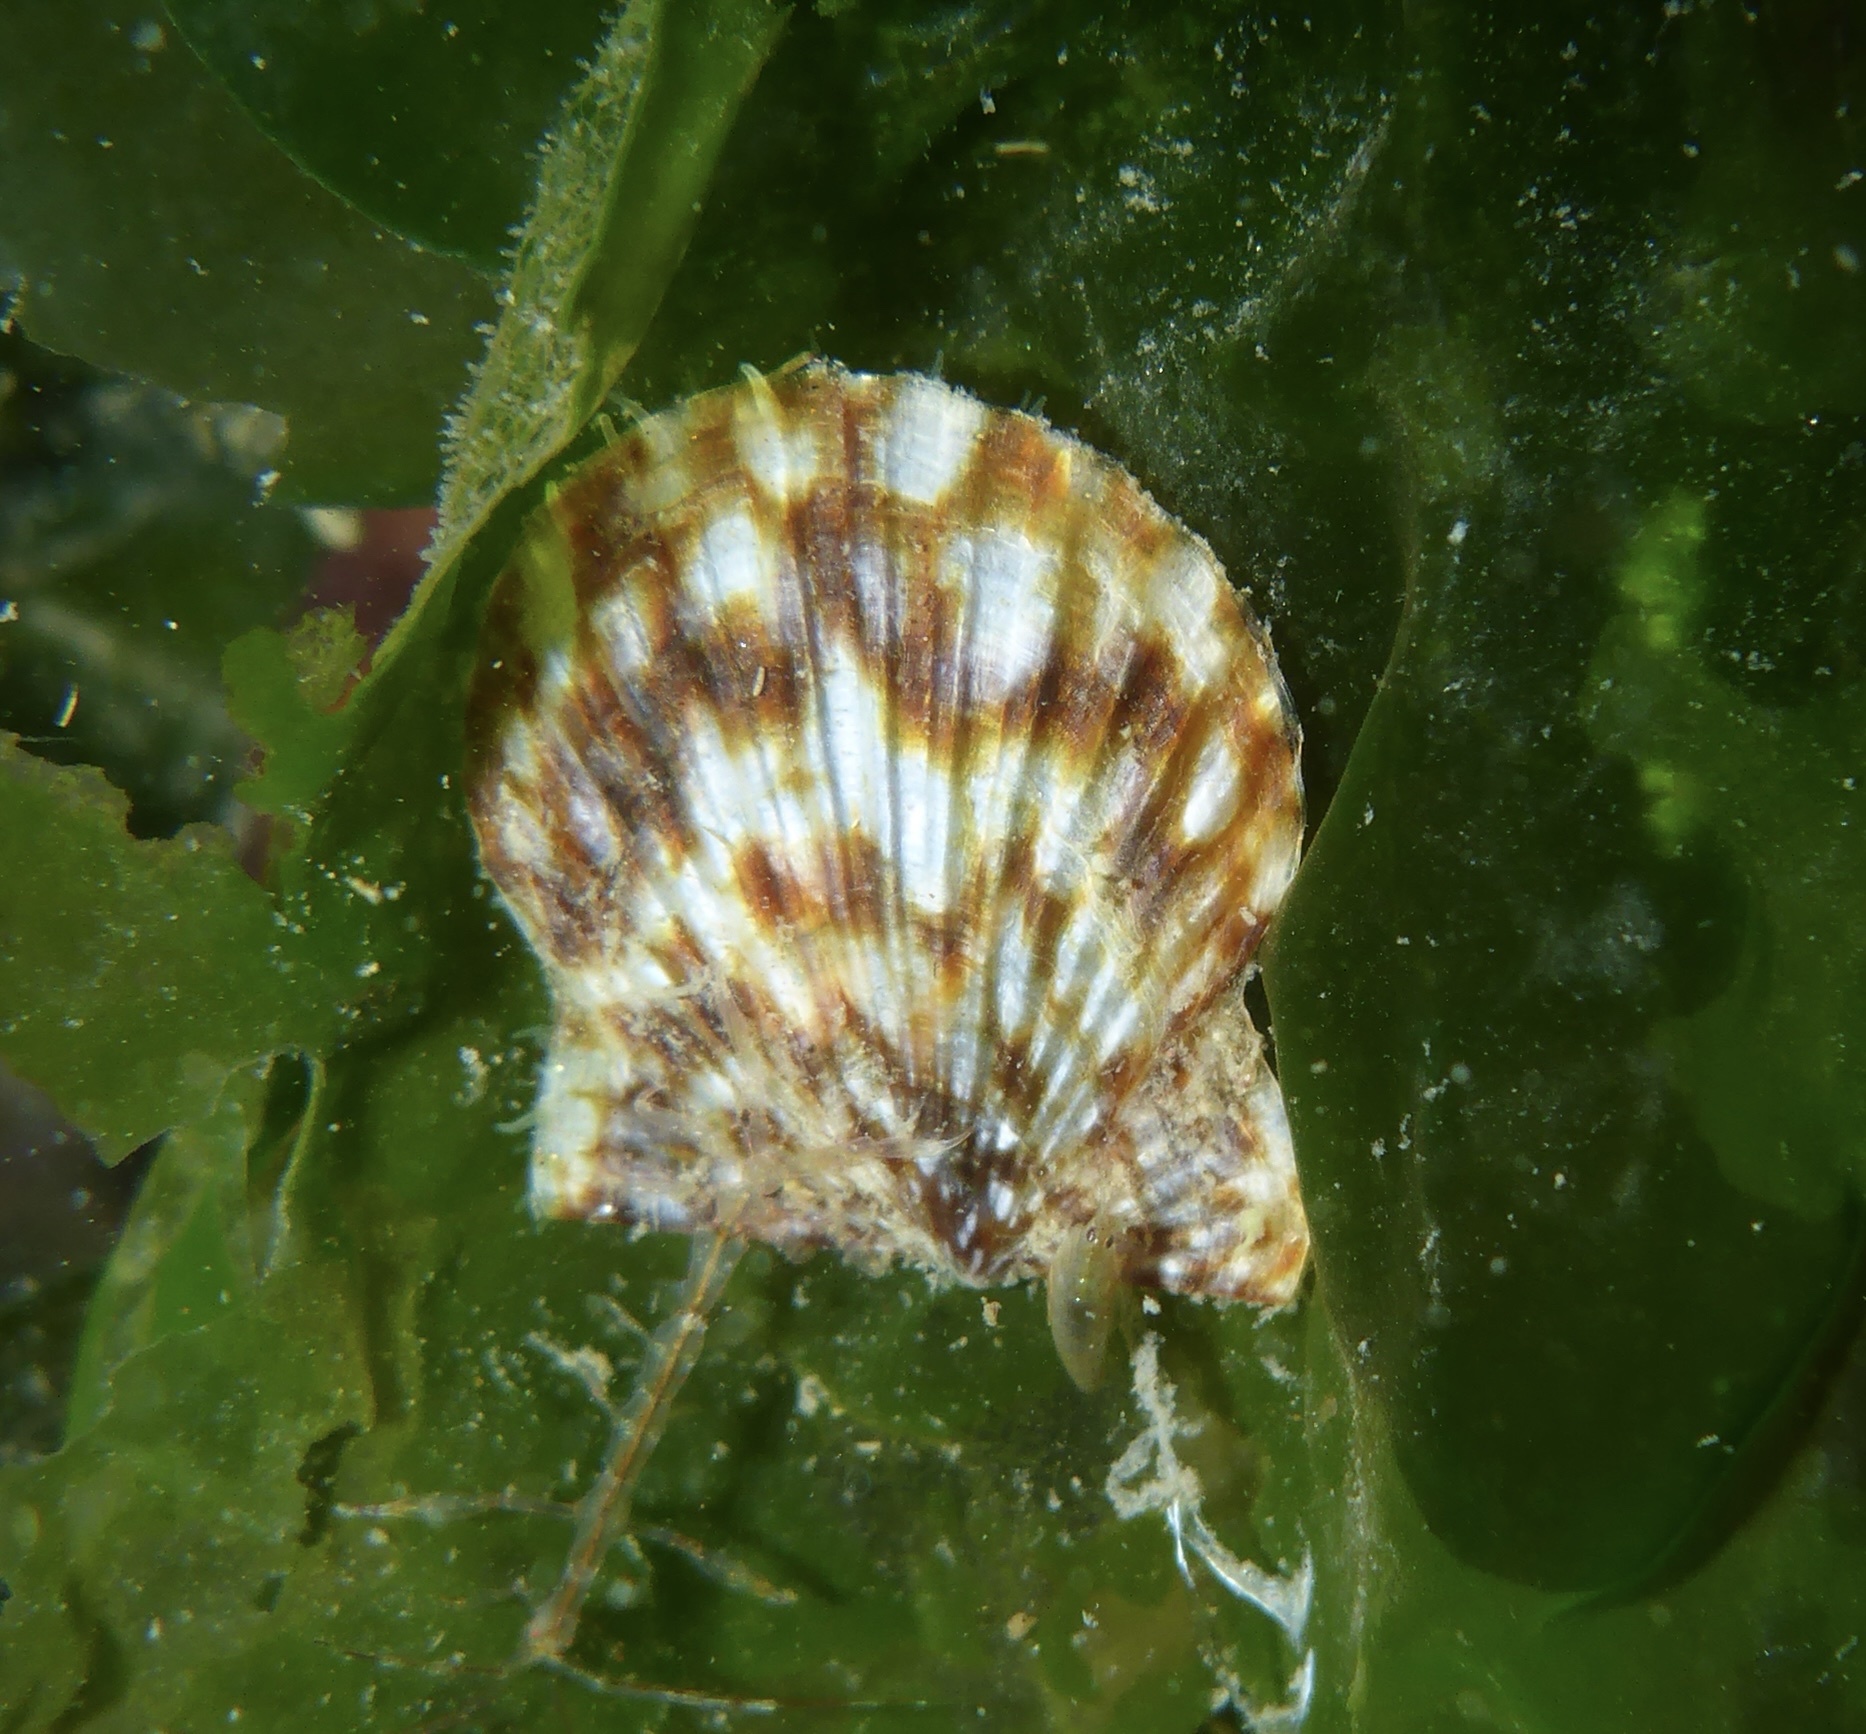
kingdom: Animalia
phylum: Mollusca
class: Bivalvia
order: Pectinida
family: Pectinidae
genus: Leptopecten
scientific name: Leptopecten latiauratus
